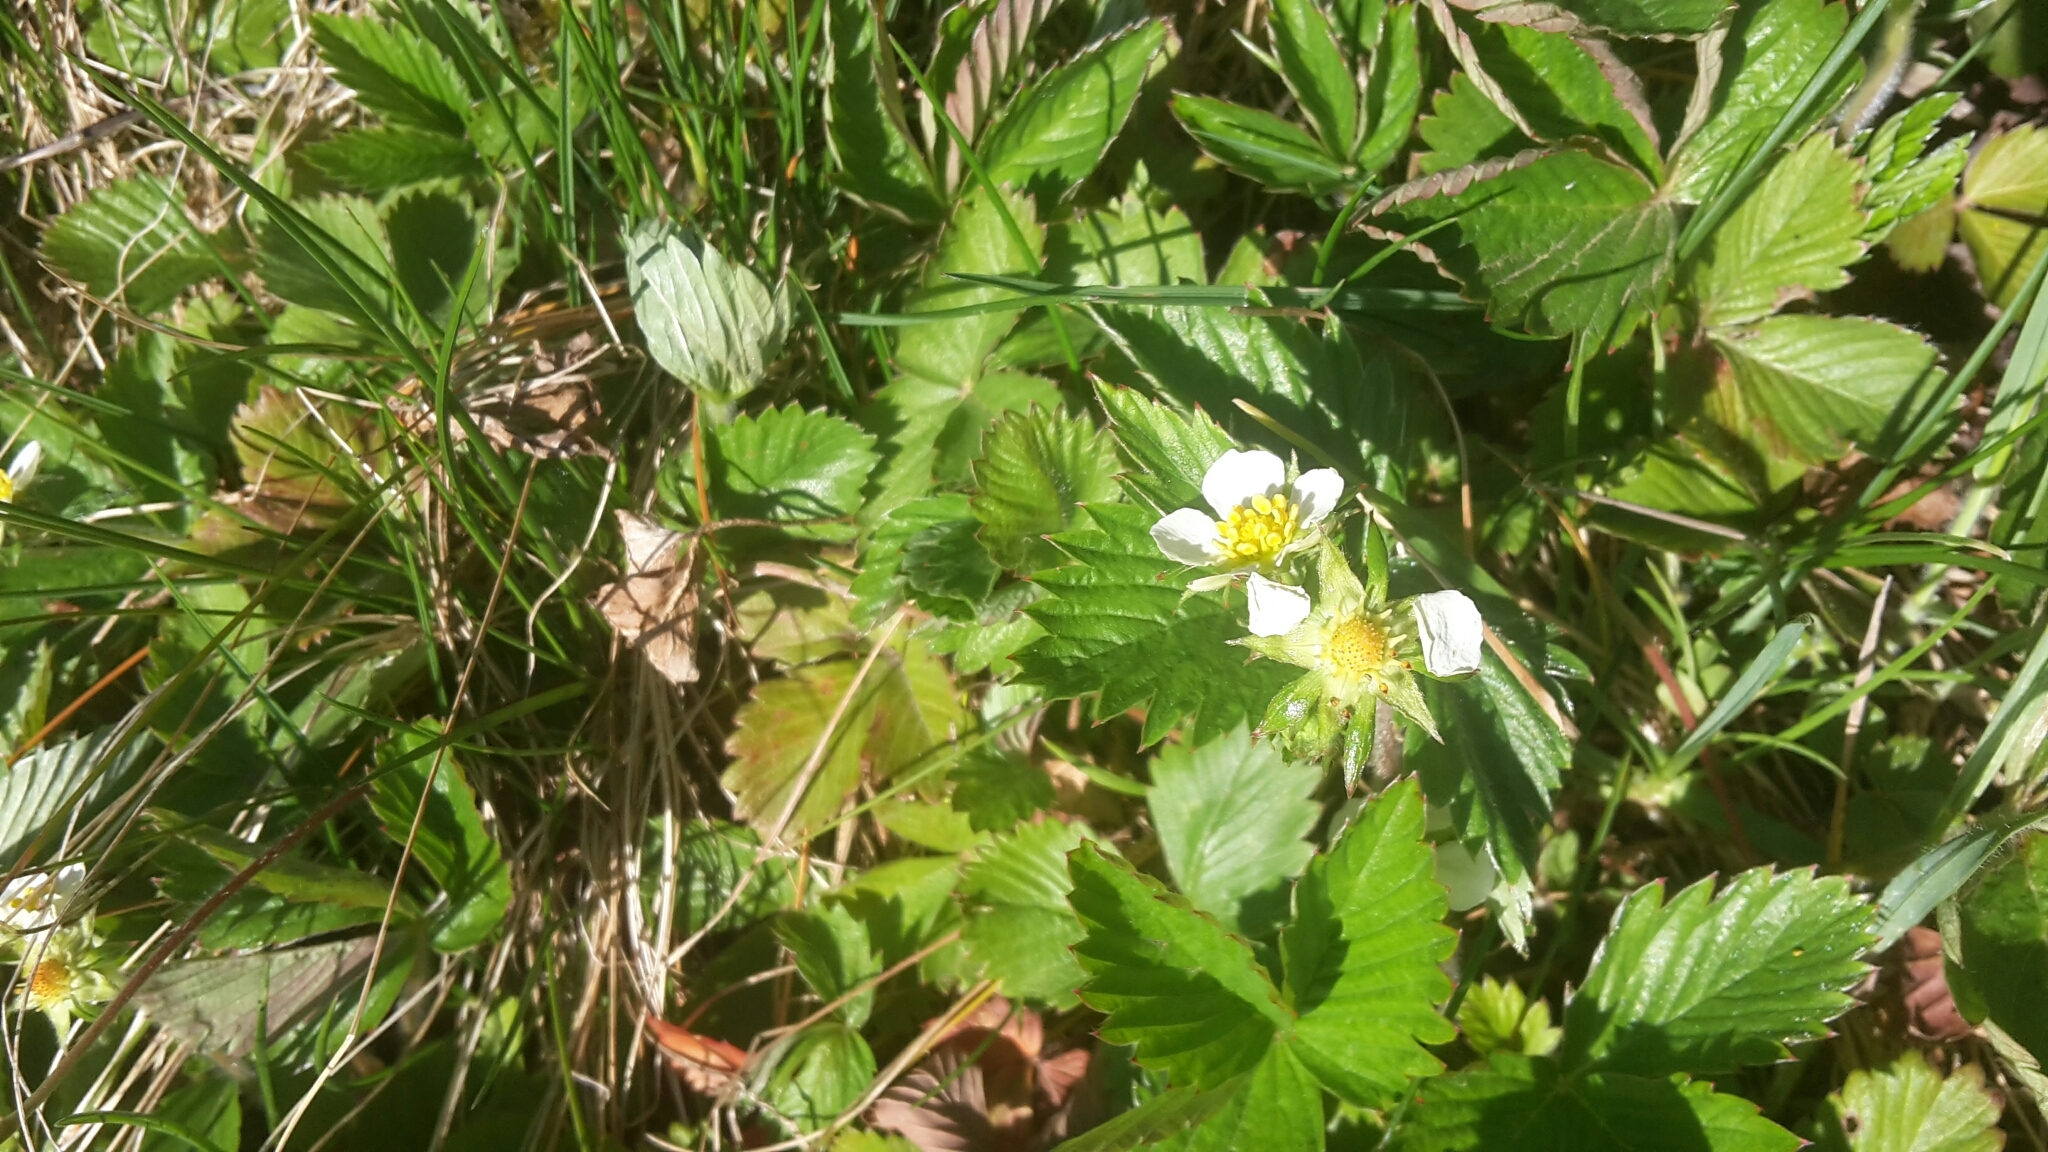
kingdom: Plantae
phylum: Tracheophyta
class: Magnoliopsida
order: Rosales
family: Rosaceae
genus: Fragaria
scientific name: Fragaria vesca
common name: Wild strawberry
